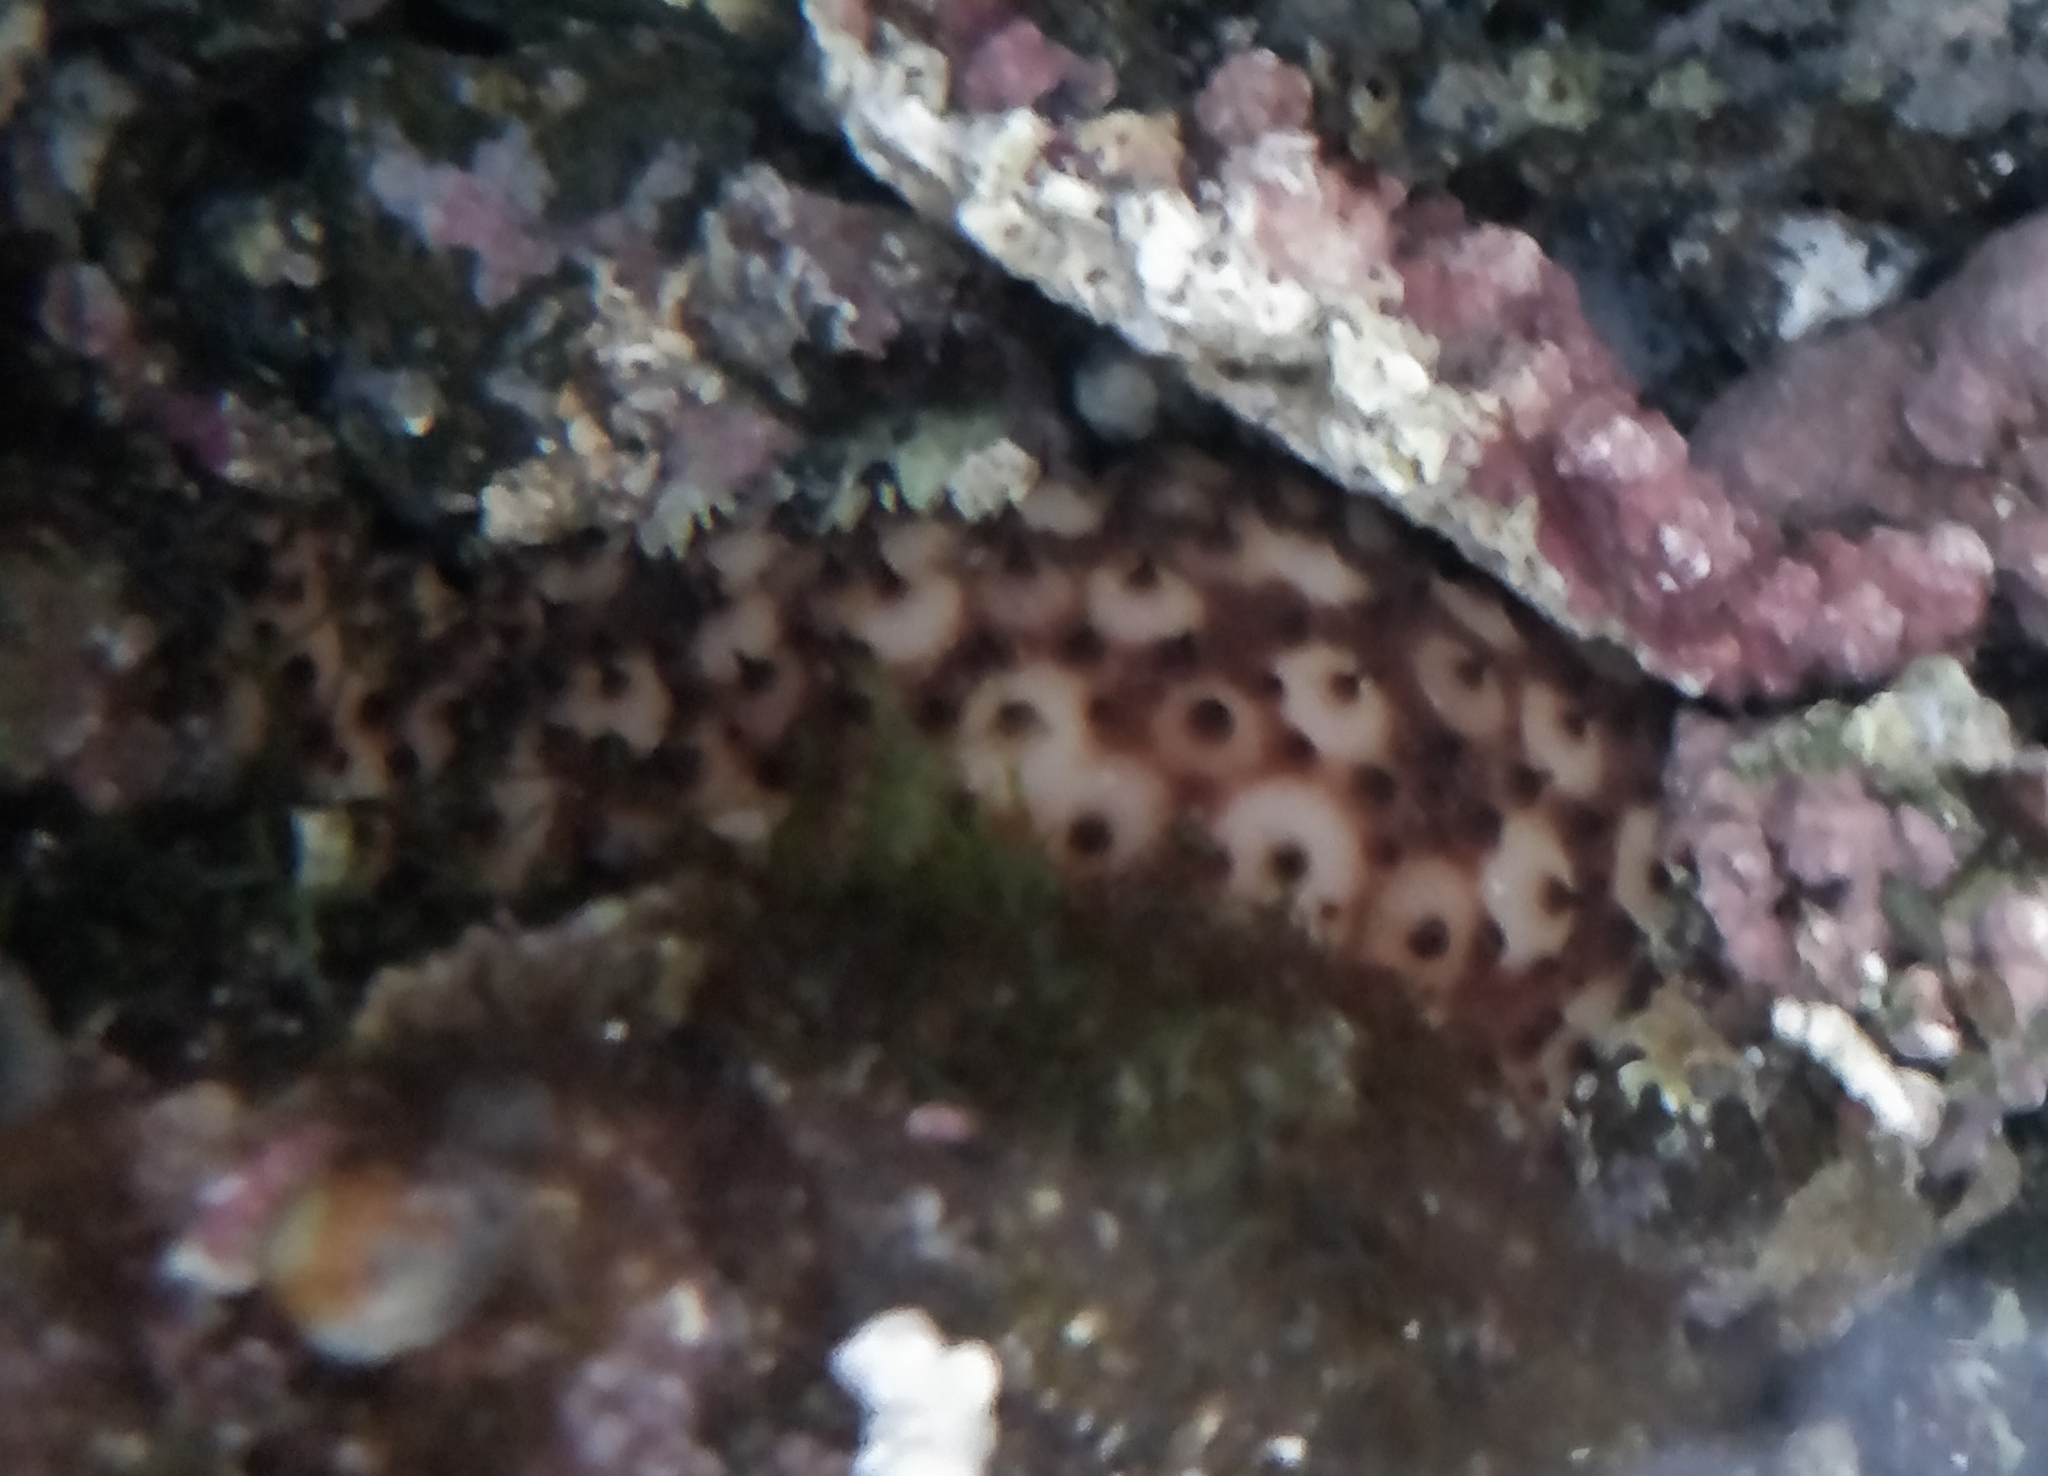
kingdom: Animalia
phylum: Echinodermata
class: Holothuroidea
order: Holothuriida
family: Holothuriidae
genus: Holothuria
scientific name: Holothuria sanctori
